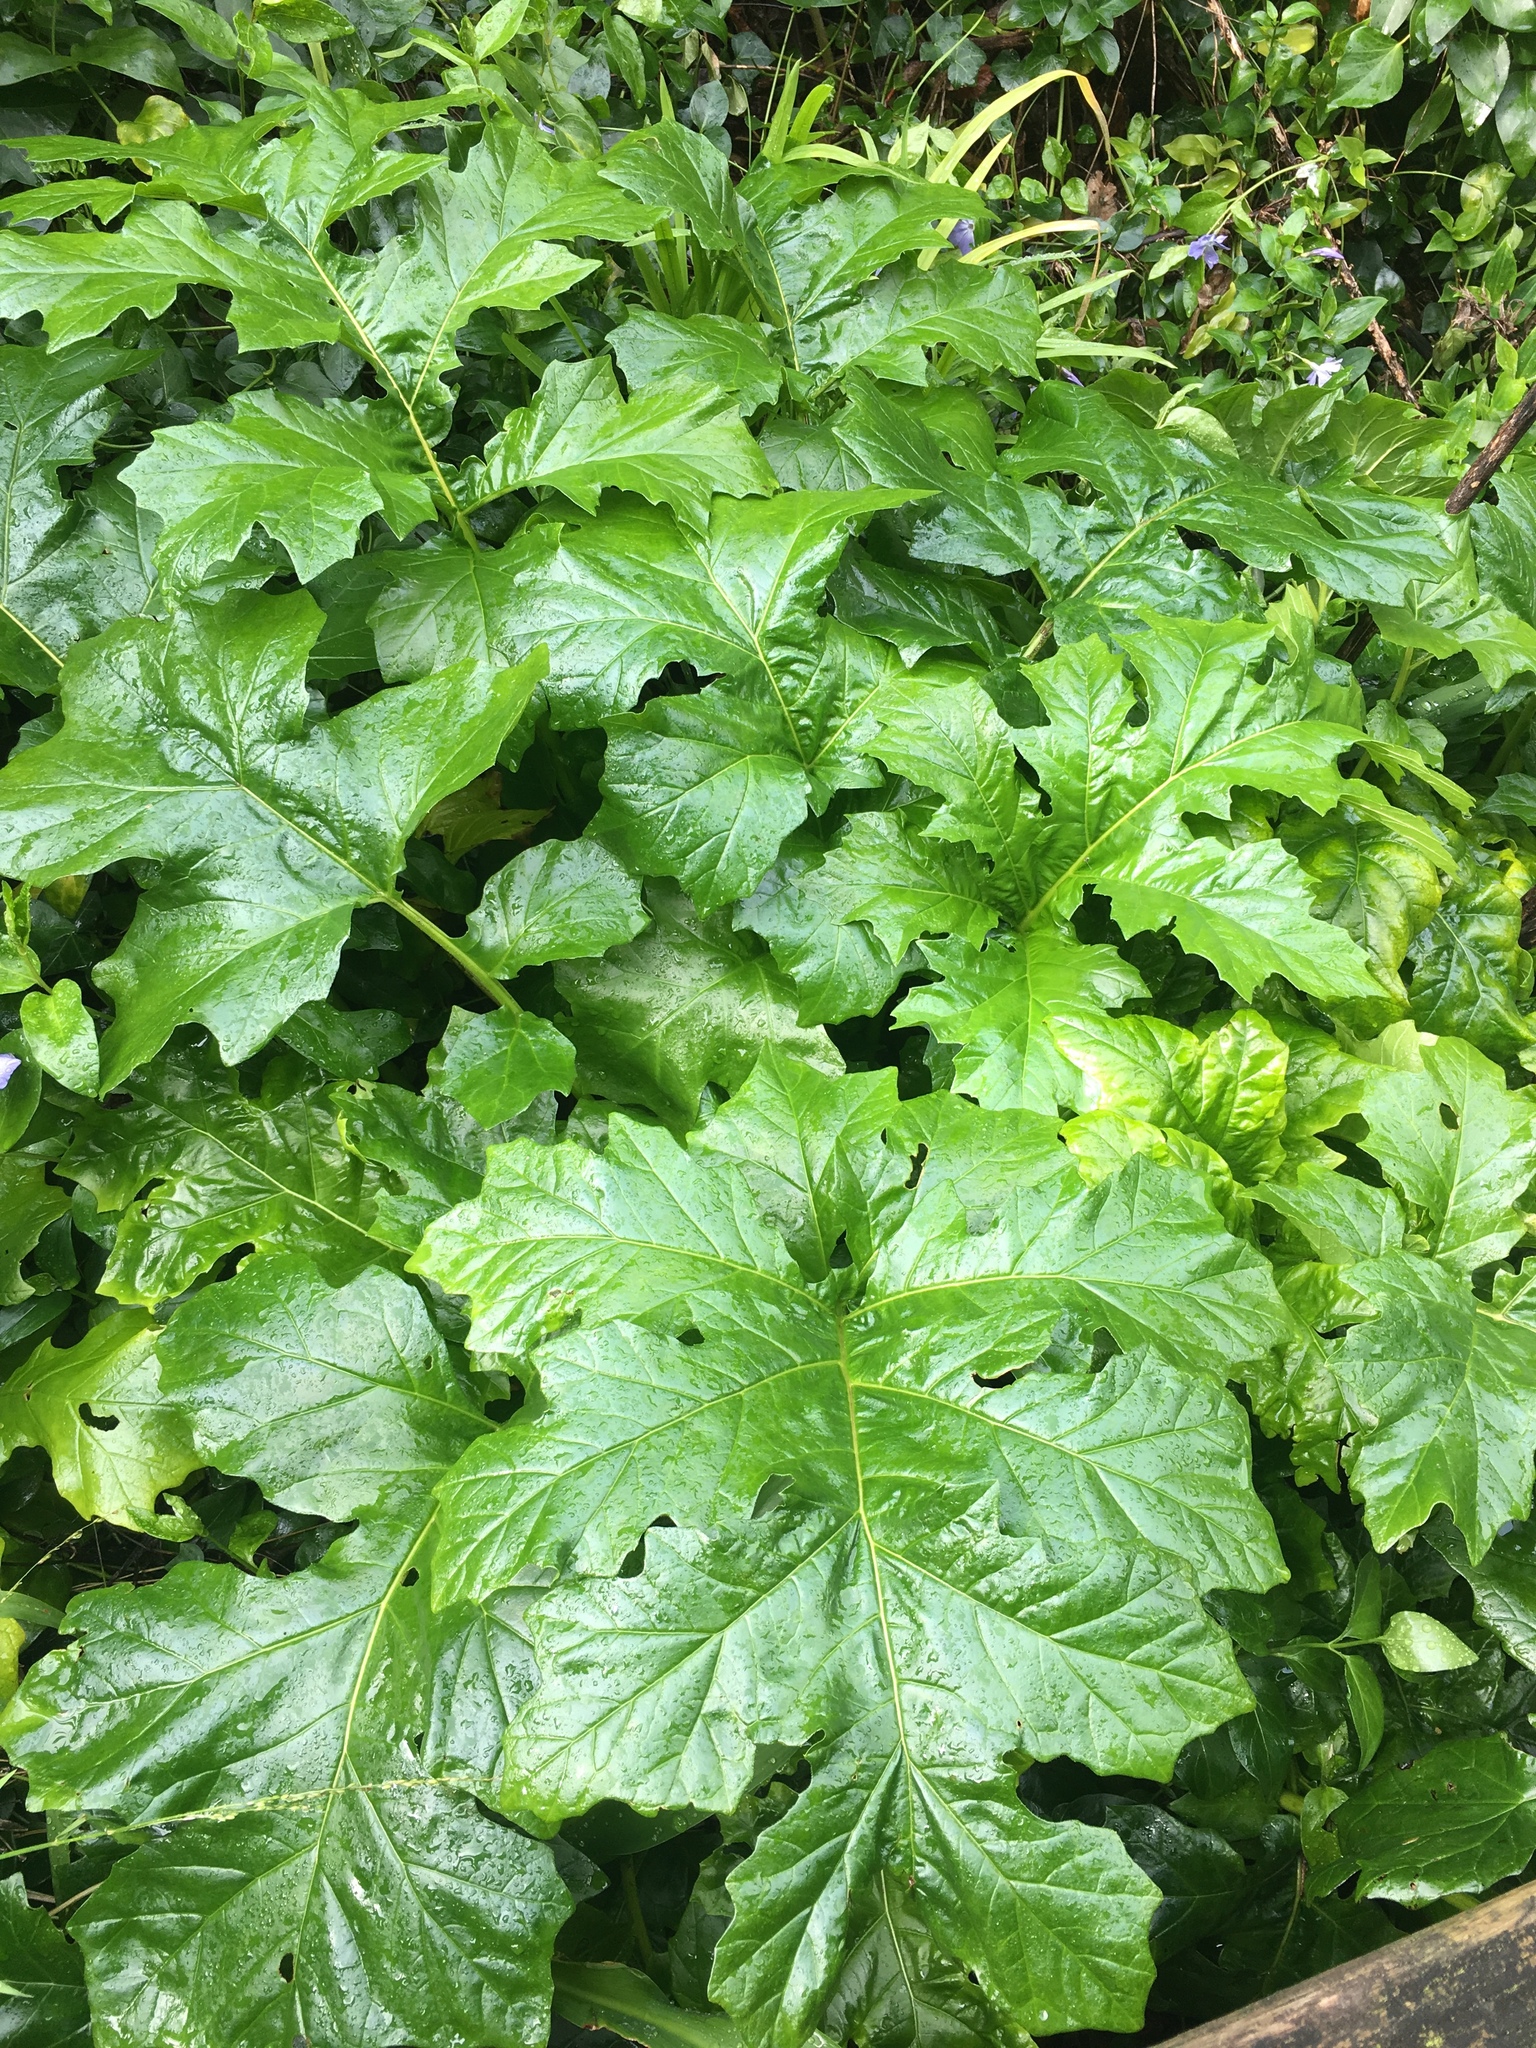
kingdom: Plantae
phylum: Tracheophyta
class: Magnoliopsida
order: Lamiales
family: Acanthaceae
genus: Acanthus
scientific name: Acanthus mollis
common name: Bear's-breech
